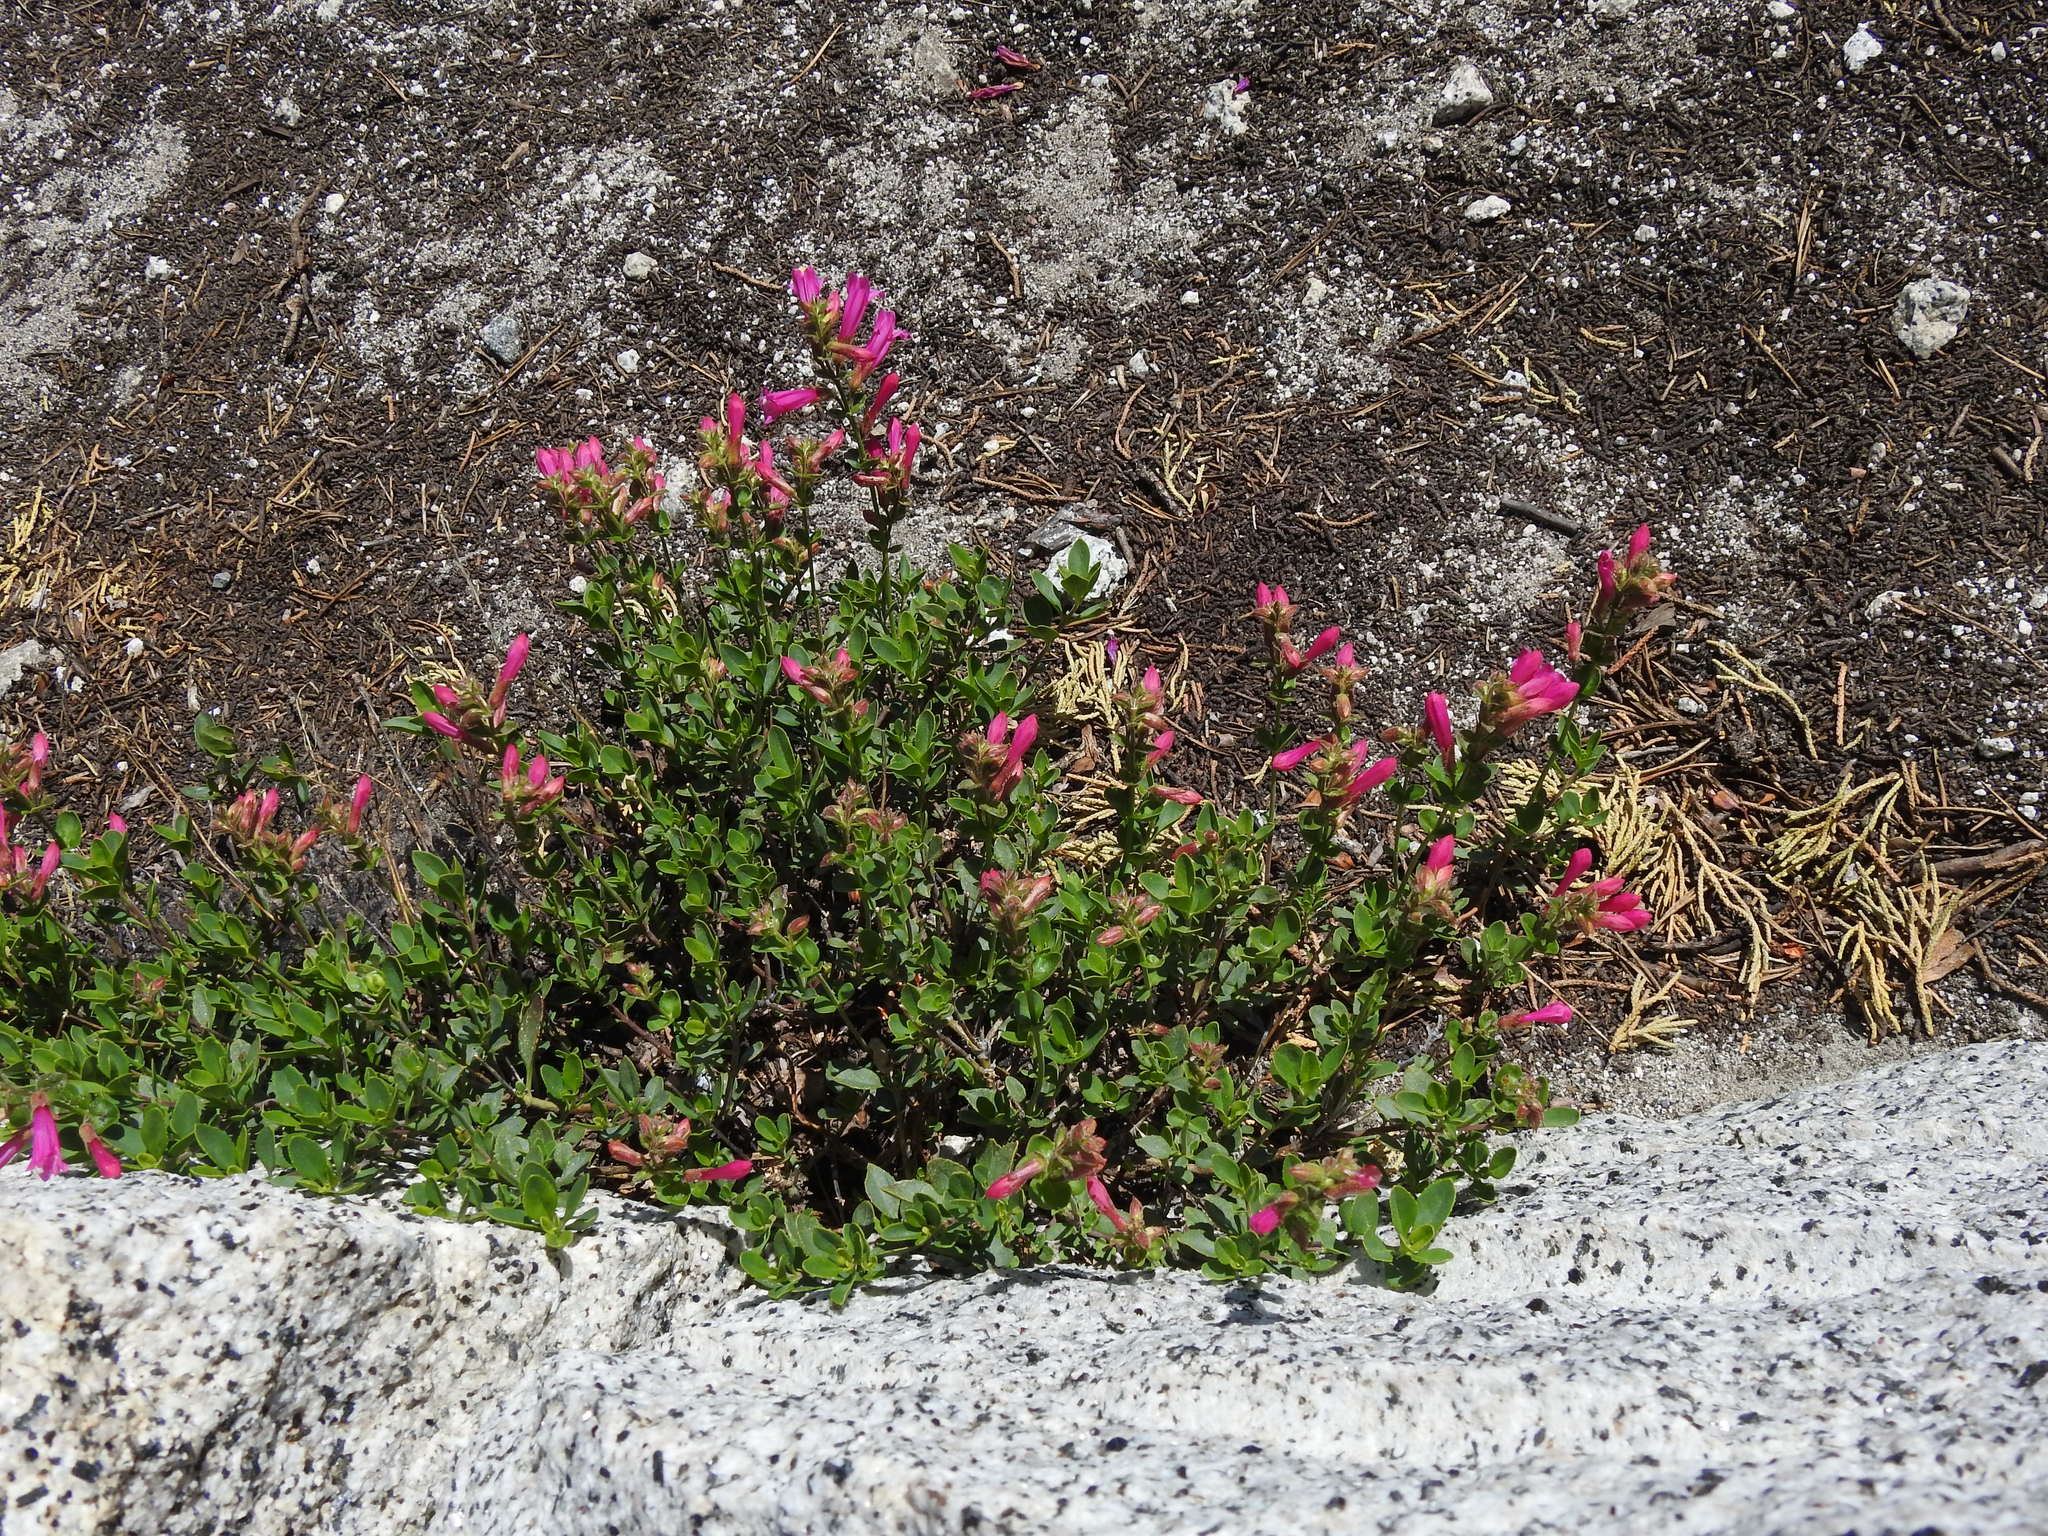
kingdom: Plantae
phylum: Tracheophyta
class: Magnoliopsida
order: Lamiales
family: Plantaginaceae
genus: Penstemon
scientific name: Penstemon newberryi
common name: Mountain-pride
